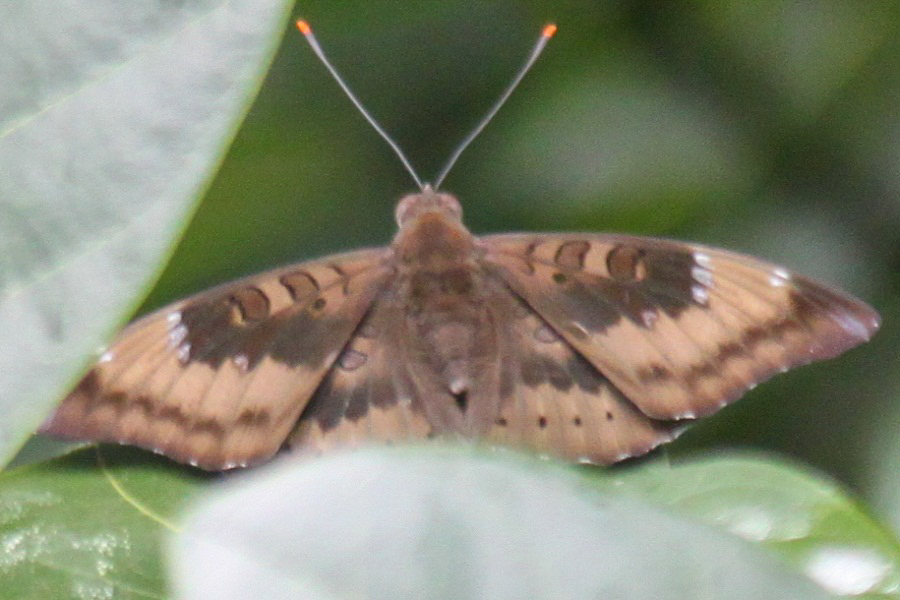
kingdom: Animalia
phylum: Arthropoda
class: Insecta
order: Lepidoptera
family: Nymphalidae
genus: Euthalia
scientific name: Euthalia aconthea
